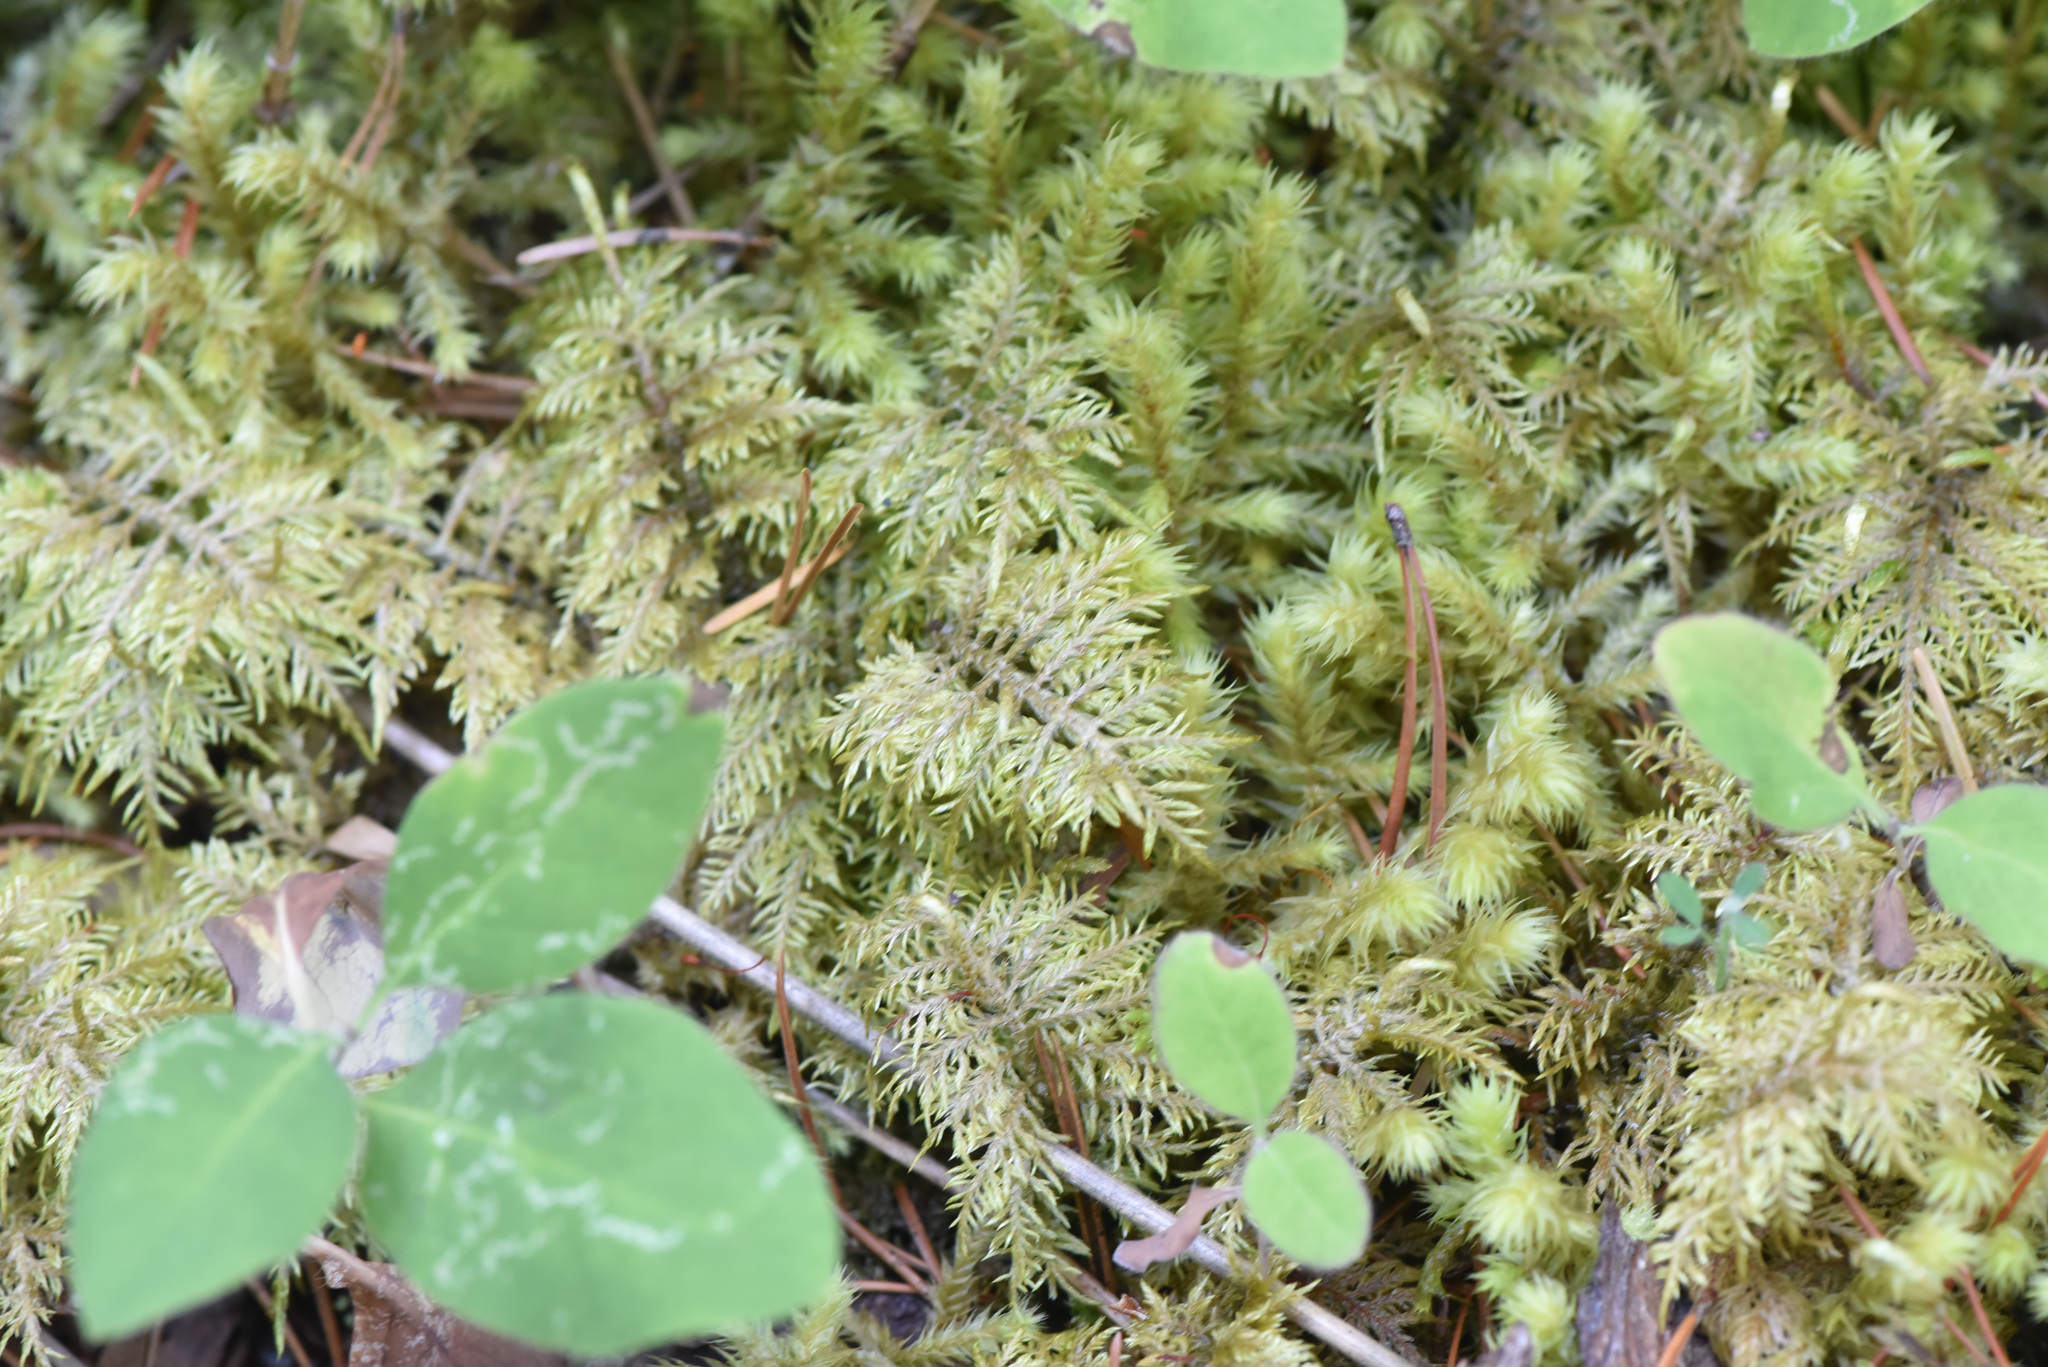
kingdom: Plantae
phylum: Bryophyta
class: Bryopsida
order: Hypnales
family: Hylocomiaceae
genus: Hylocomium
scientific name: Hylocomium splendens
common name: Stairstep moss
